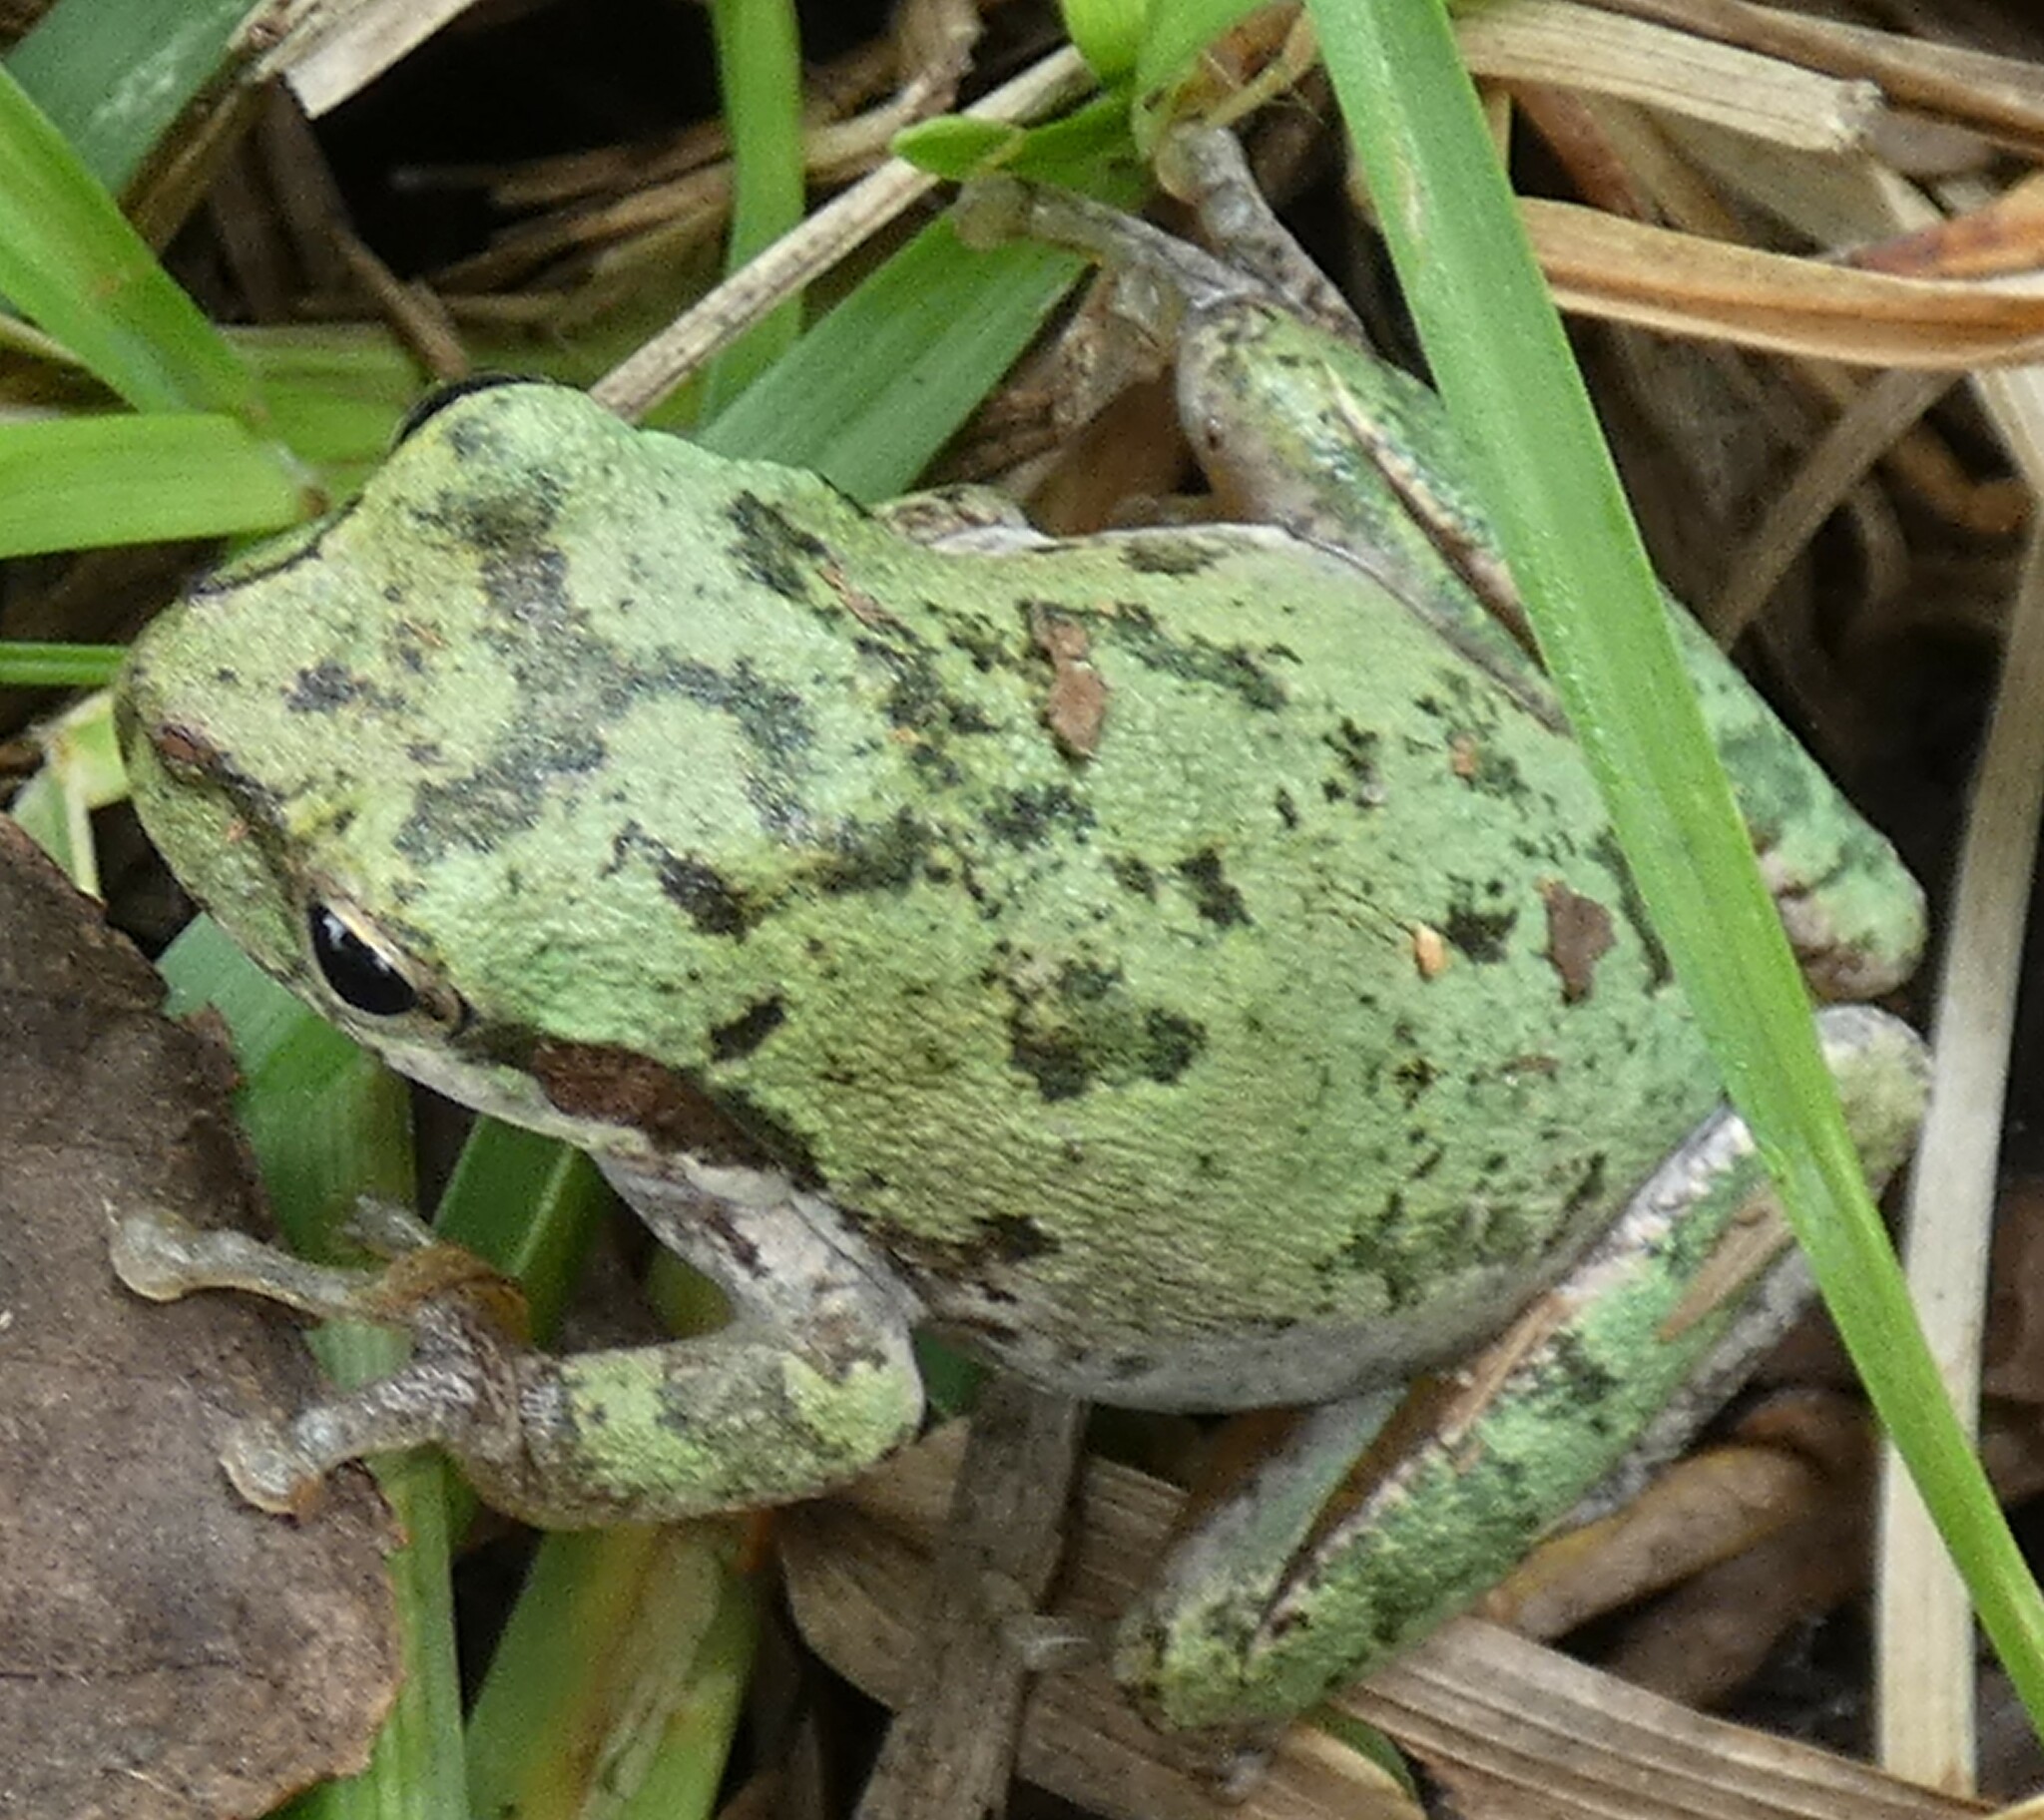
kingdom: Animalia
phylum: Chordata
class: Amphibia
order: Anura
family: Hylidae
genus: Dryophytes
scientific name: Dryophytes squirellus
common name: Squirrel treefrog
